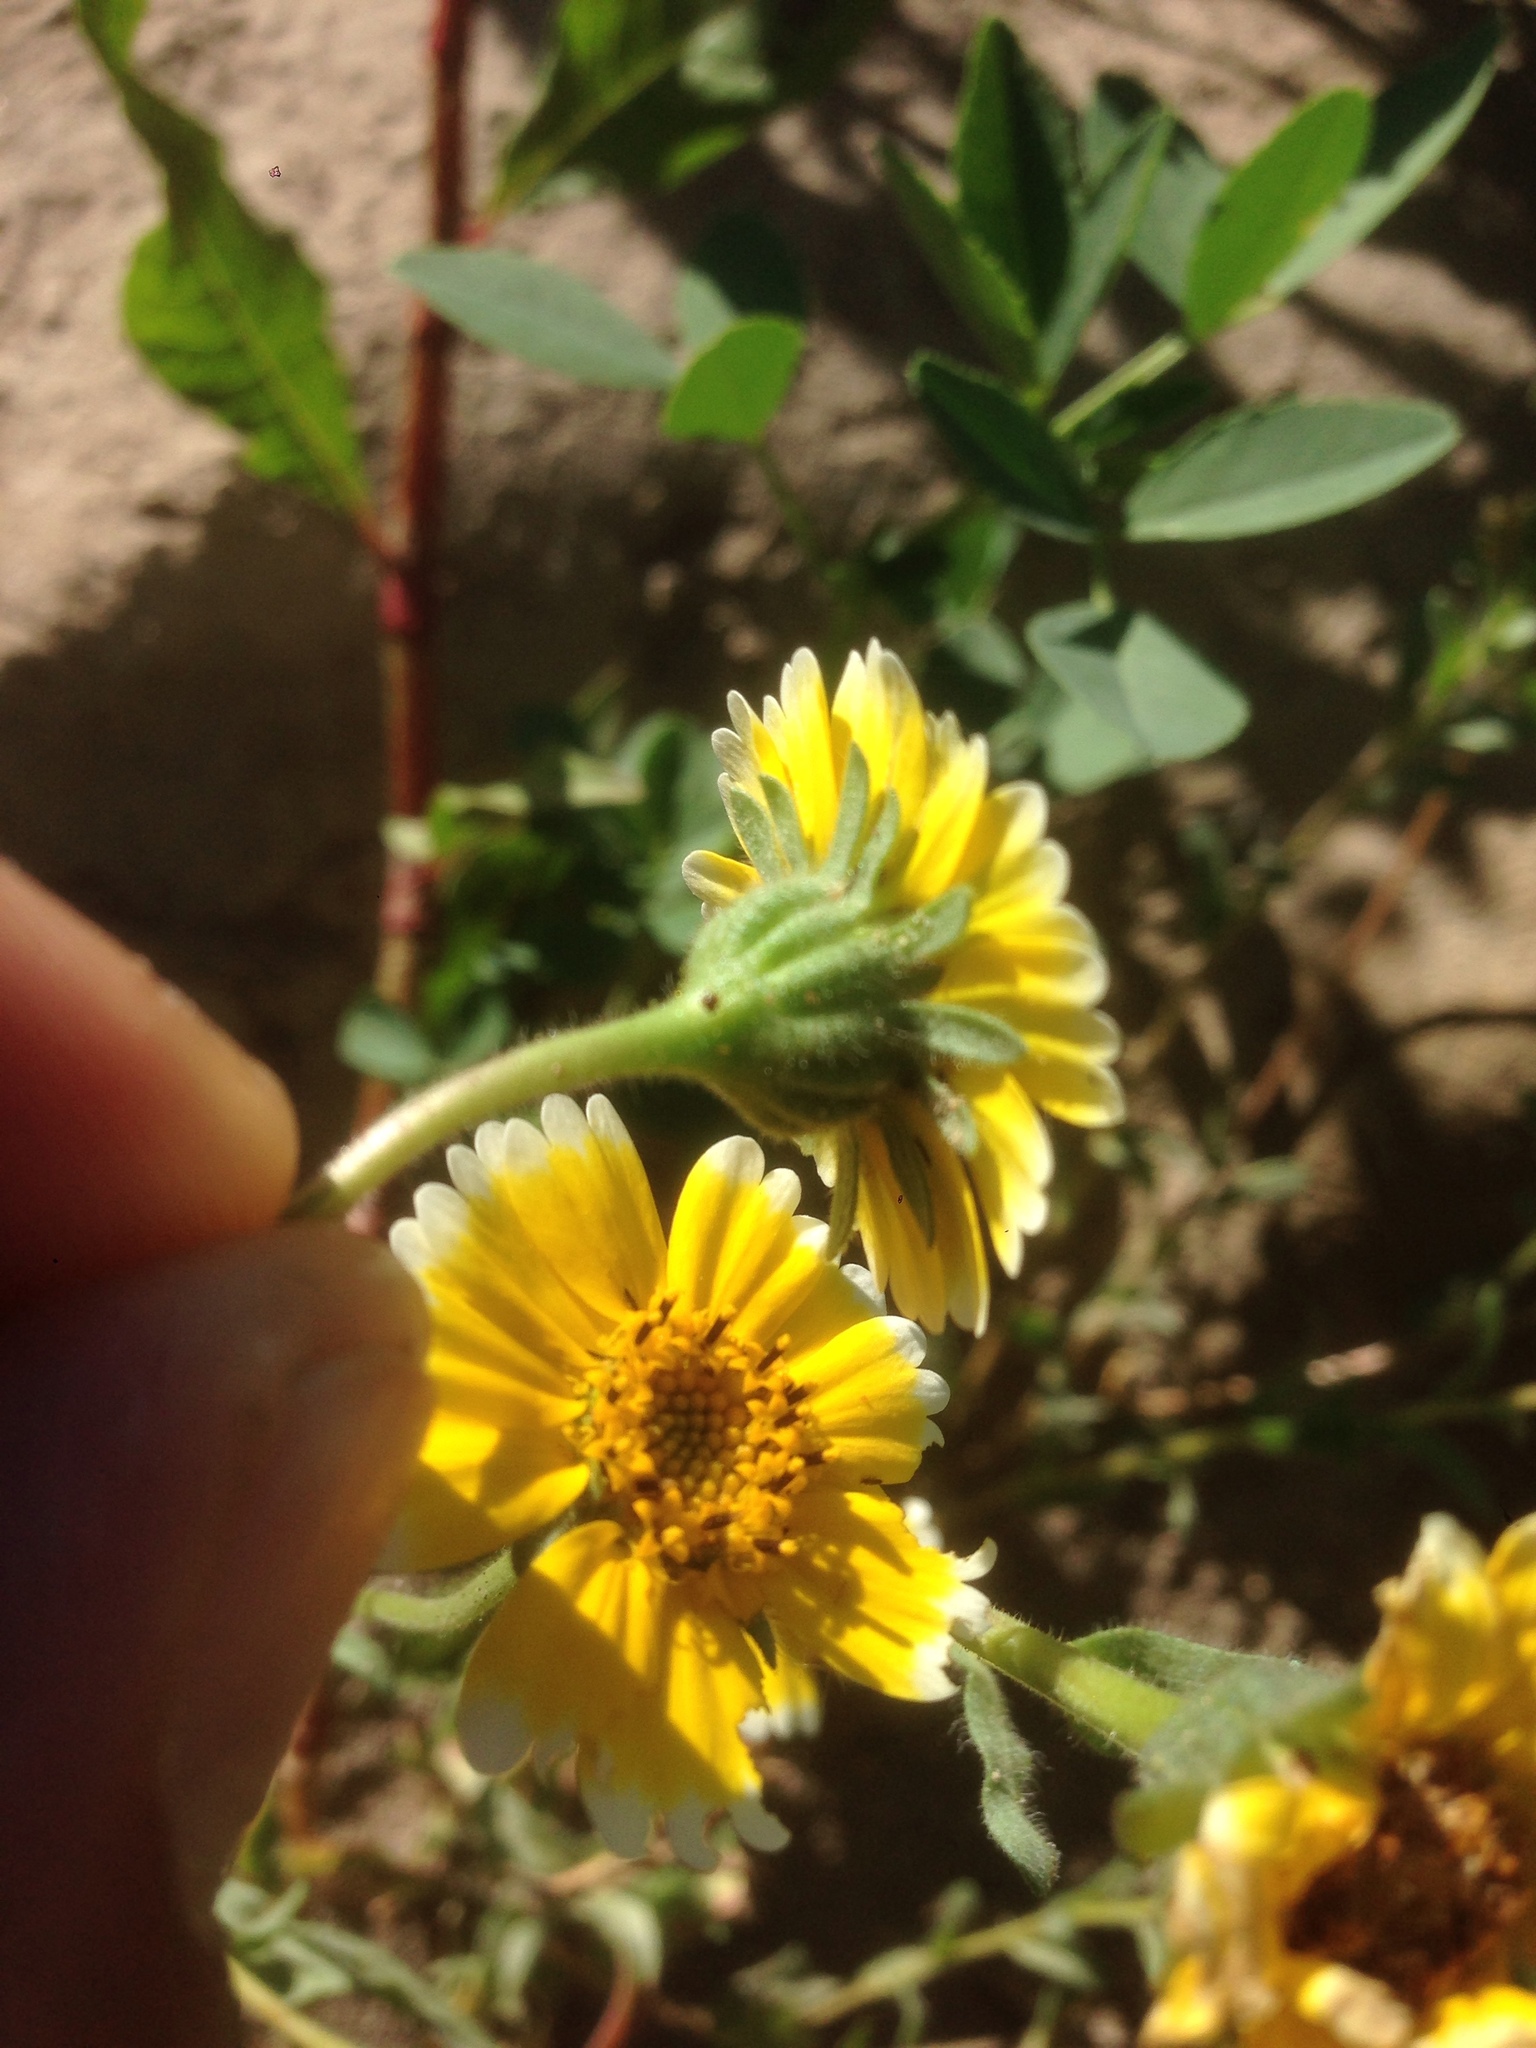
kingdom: Plantae
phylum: Tracheophyta
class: Magnoliopsida
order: Asterales
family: Asteraceae
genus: Layia
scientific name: Layia platyglossa
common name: Tidy-tips
